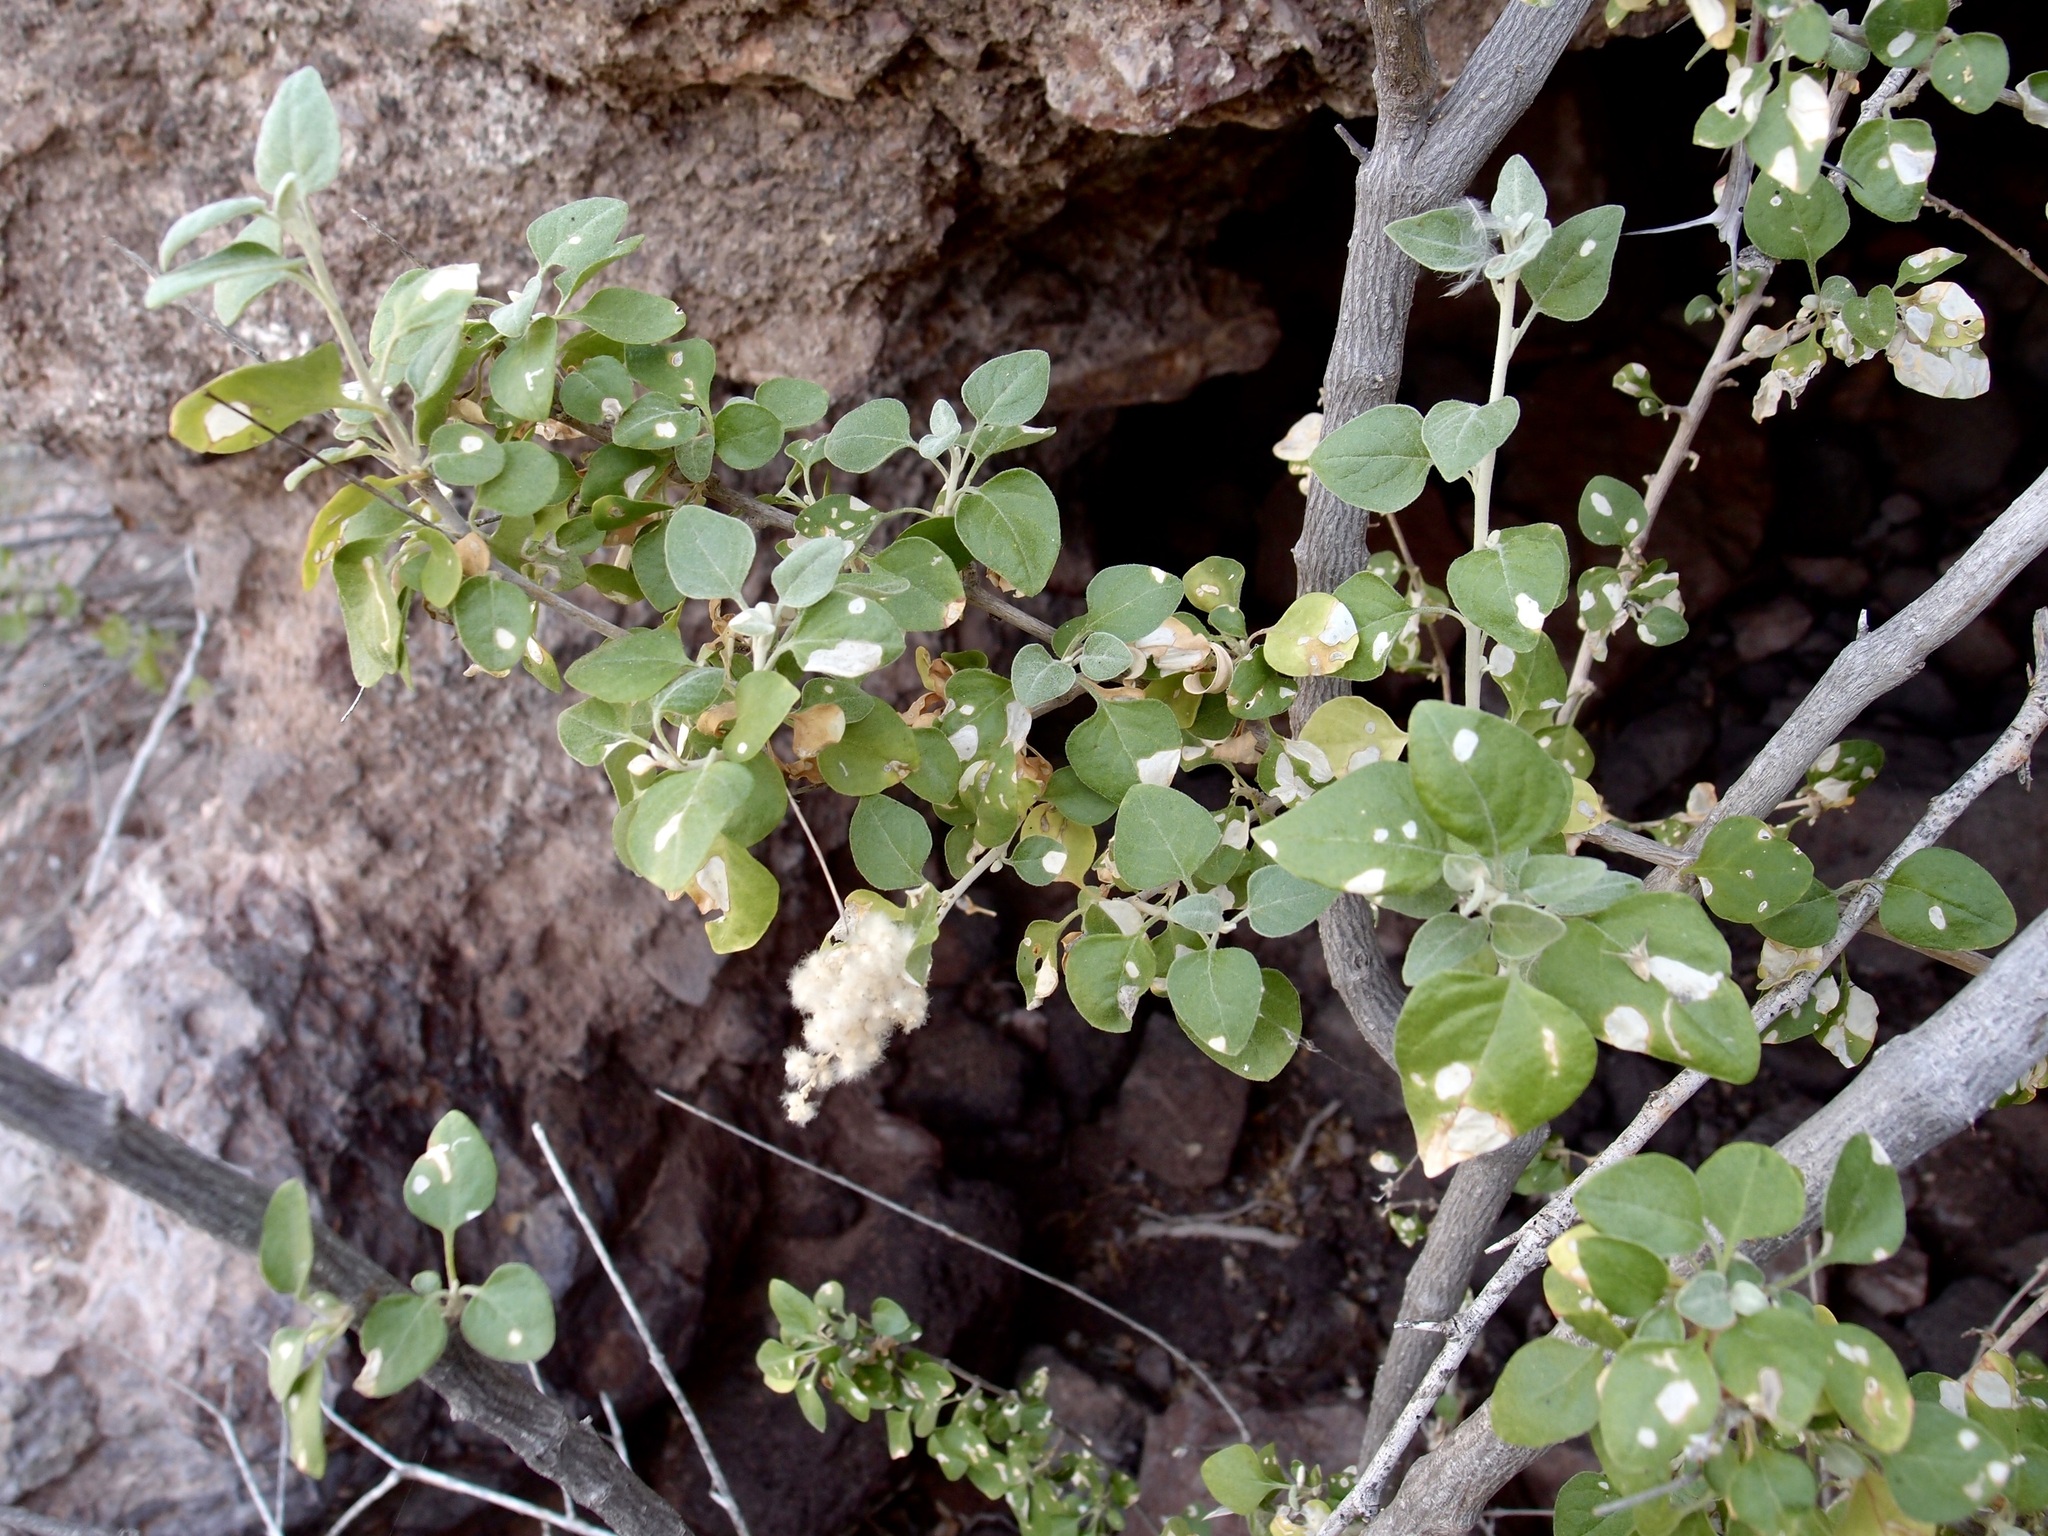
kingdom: Plantae
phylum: Tracheophyta
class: Magnoliopsida
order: Caryophyllales
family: Amaranthaceae
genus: Iresine
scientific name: Iresine alternifolia
